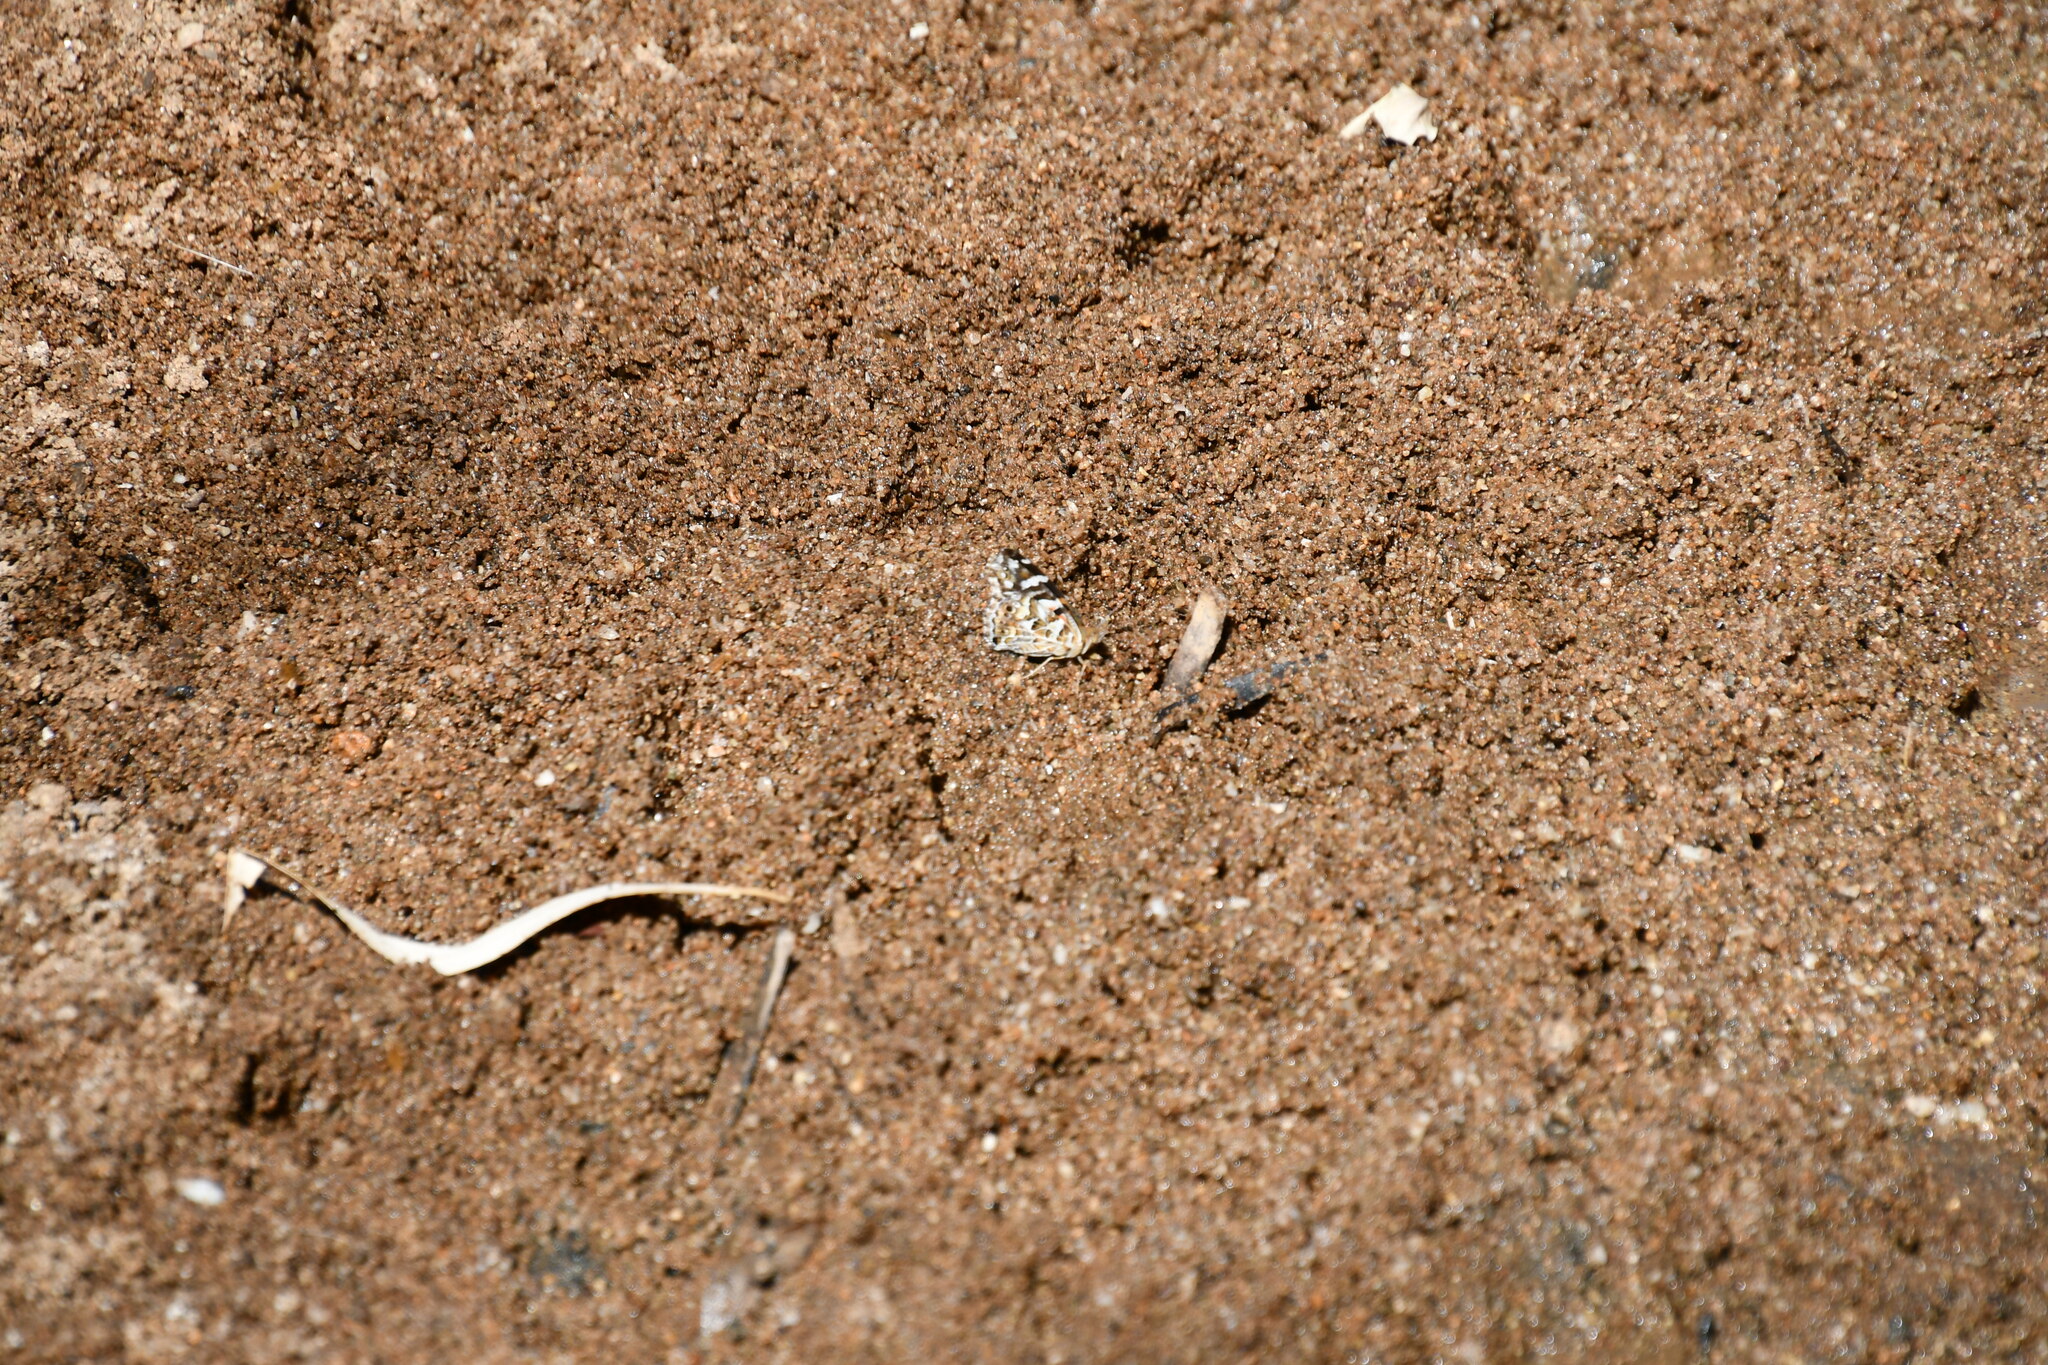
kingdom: Animalia
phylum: Arthropoda
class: Insecta
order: Lepidoptera
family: Nymphalidae
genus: Vanessa
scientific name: Vanessa kershawi
